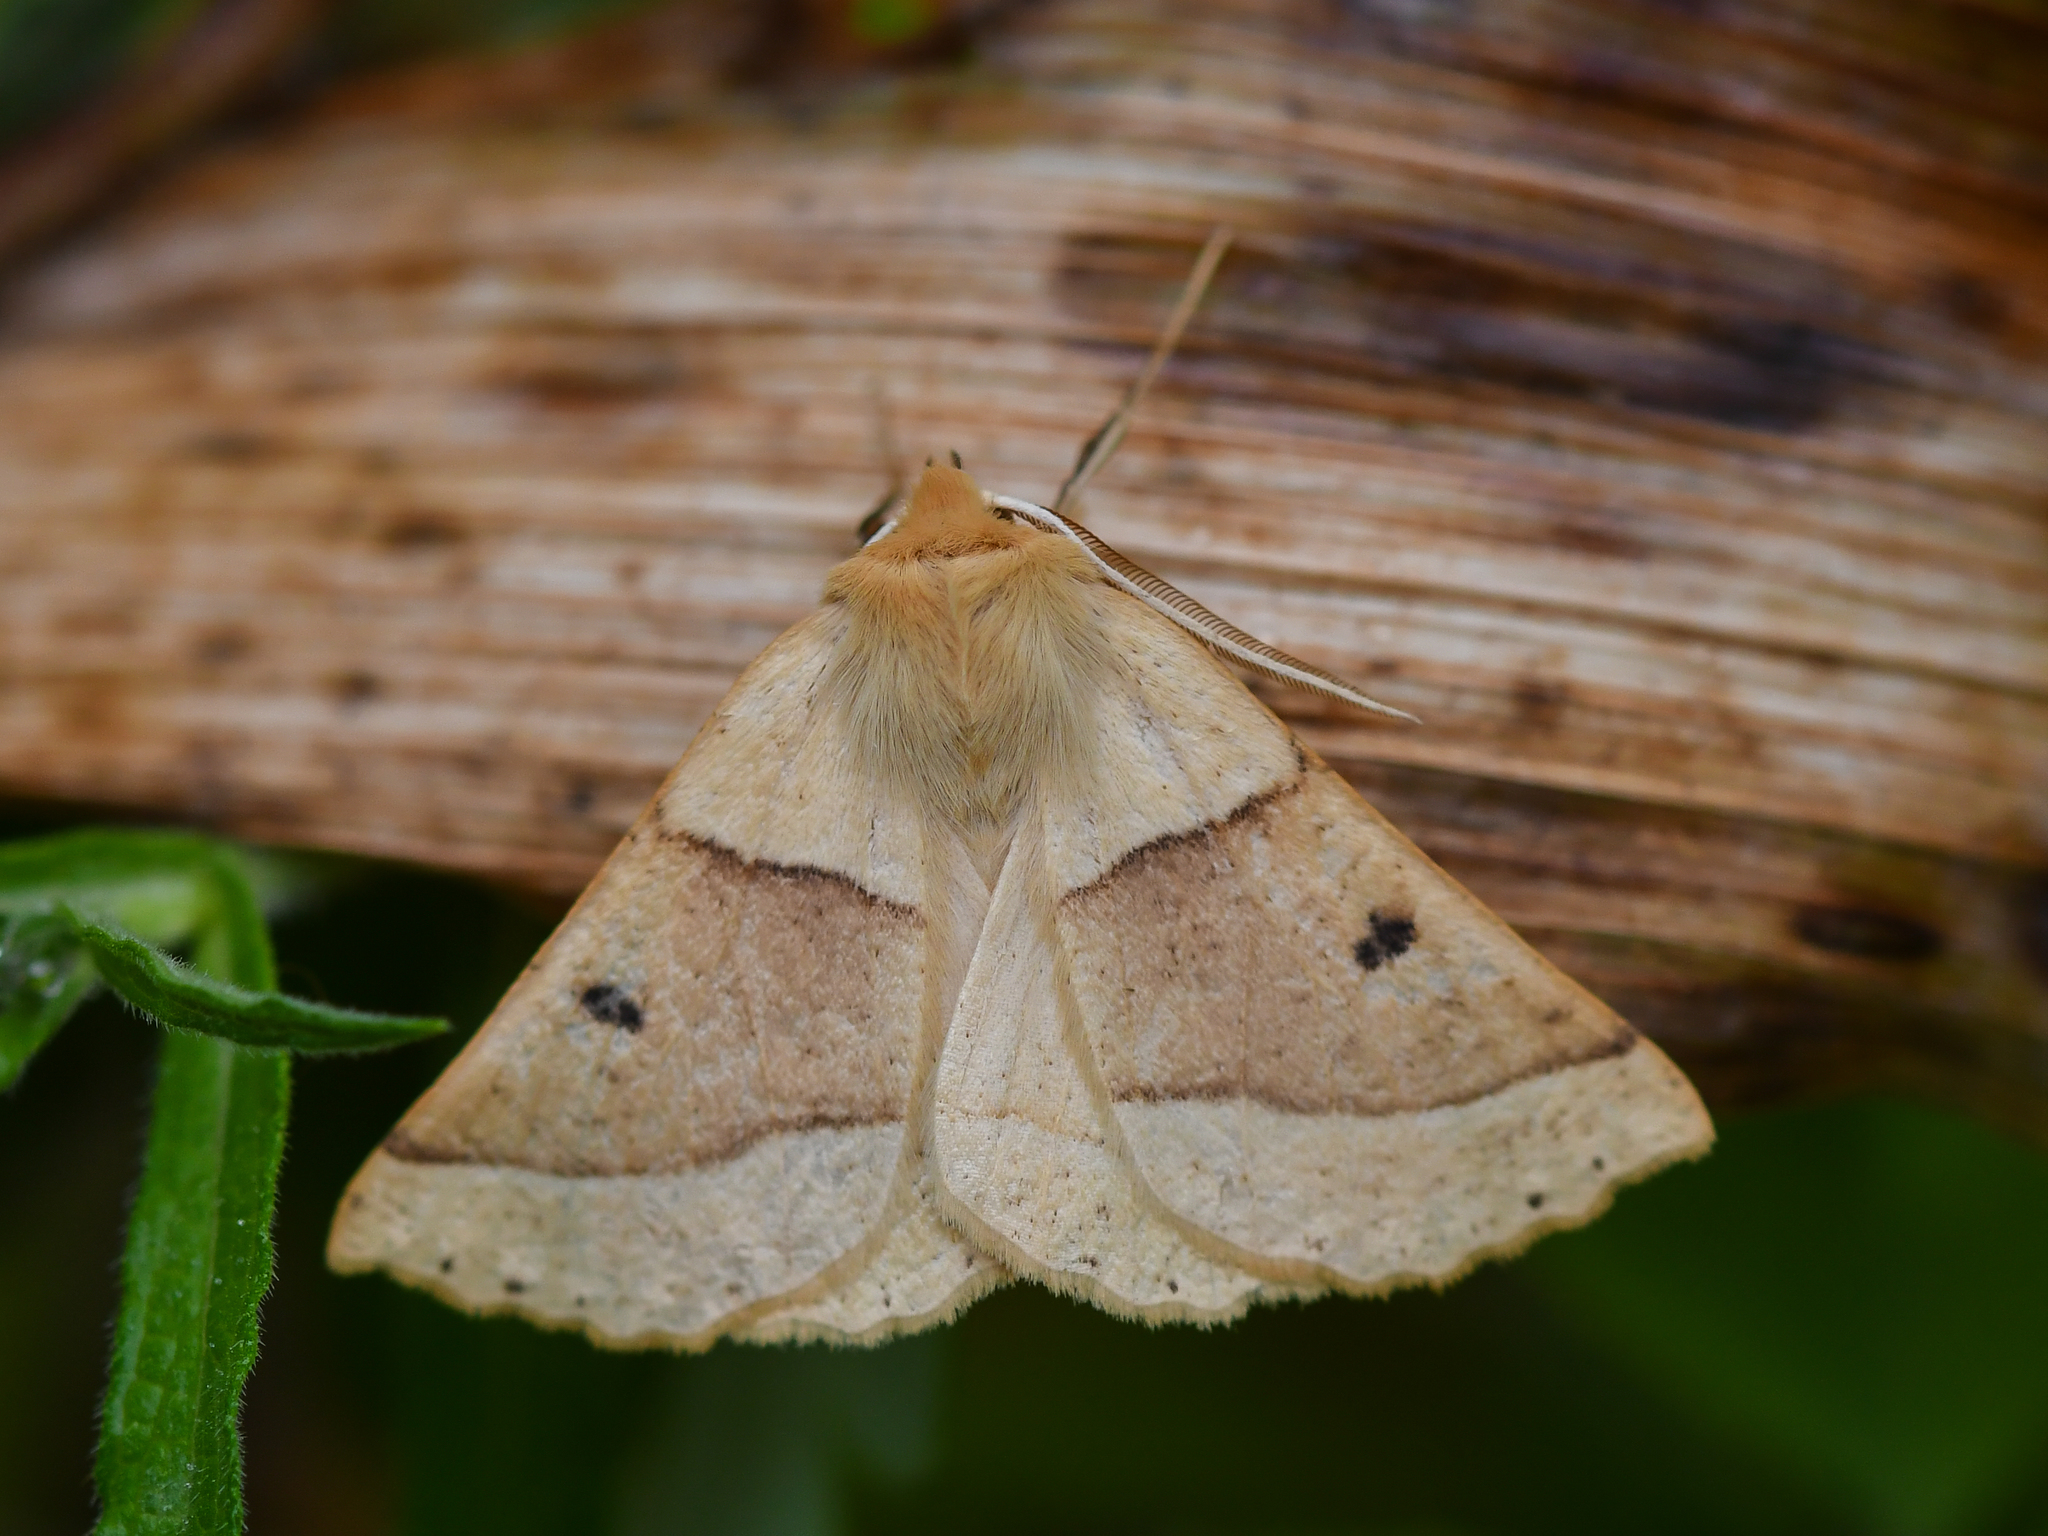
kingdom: Animalia
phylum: Arthropoda
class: Insecta
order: Lepidoptera
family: Geometridae
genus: Crocallis
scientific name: Crocallis elinguaria
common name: Scalloped oak
